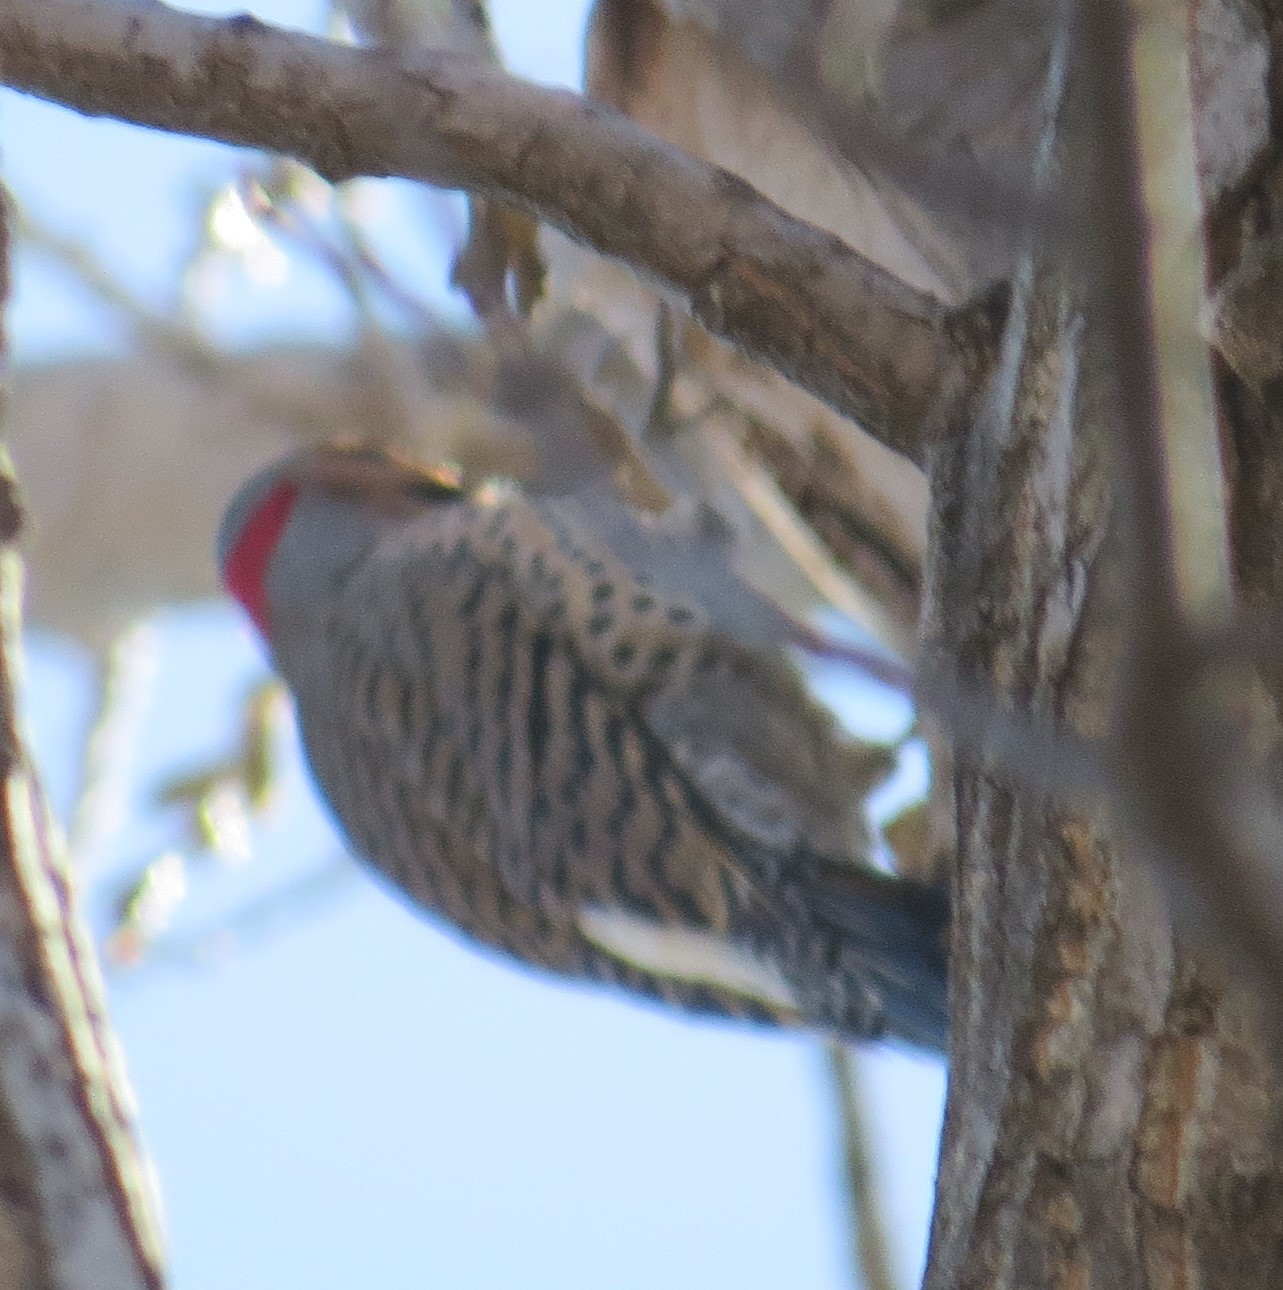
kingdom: Animalia
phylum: Chordata
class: Aves
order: Piciformes
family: Picidae
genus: Colaptes
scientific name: Colaptes auratus
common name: Northern flicker
